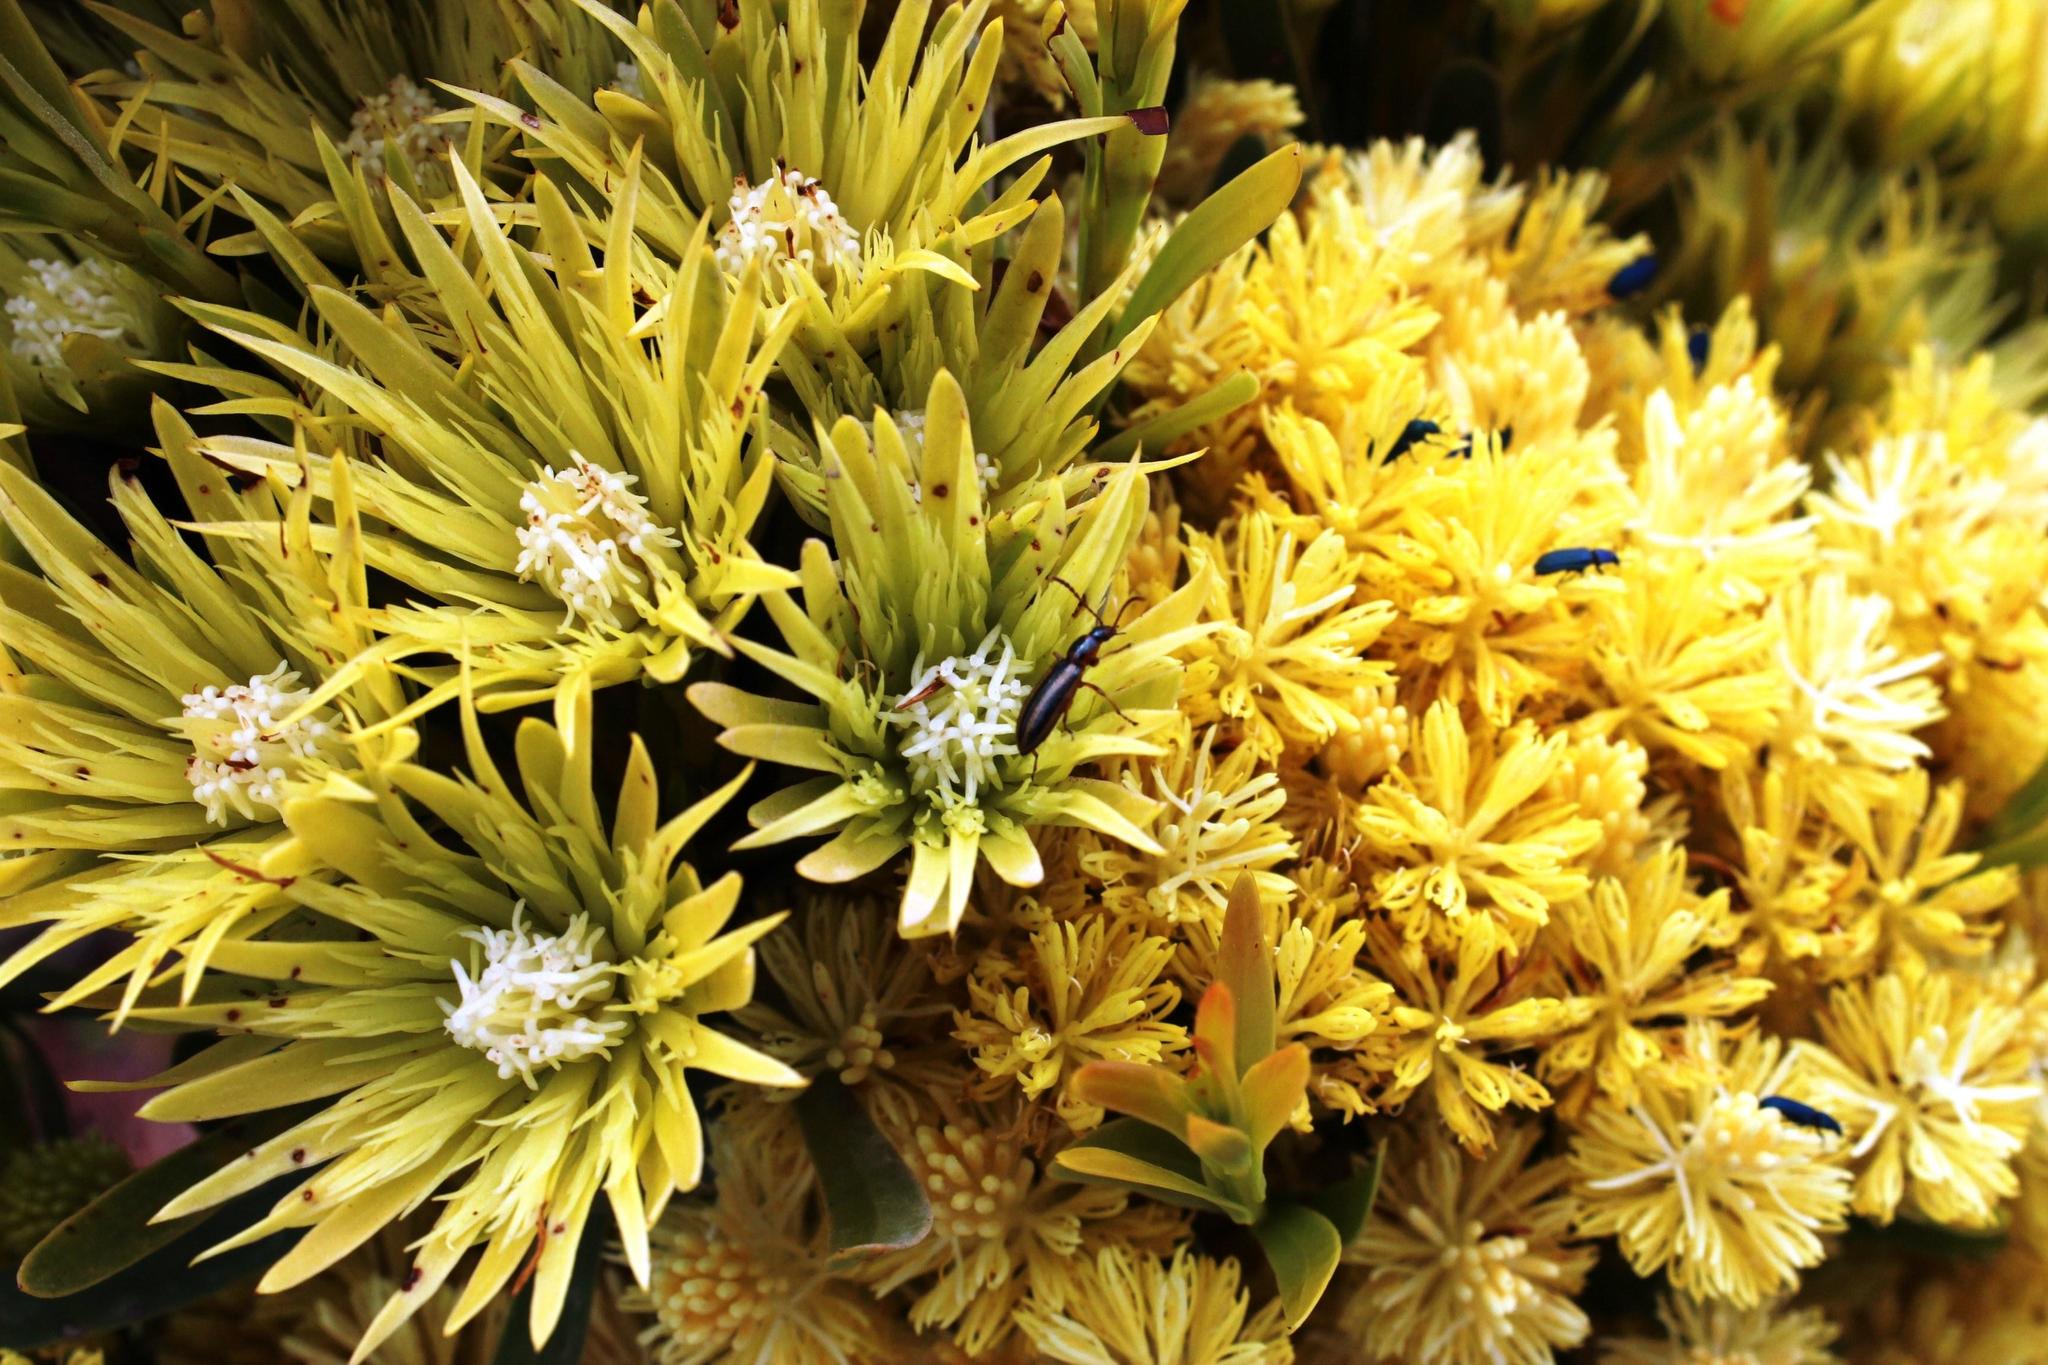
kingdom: Plantae
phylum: Tracheophyta
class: Magnoliopsida
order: Proteales
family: Proteaceae
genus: Aulax
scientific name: Aulax umbellata
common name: Broad-leaf featherbush
